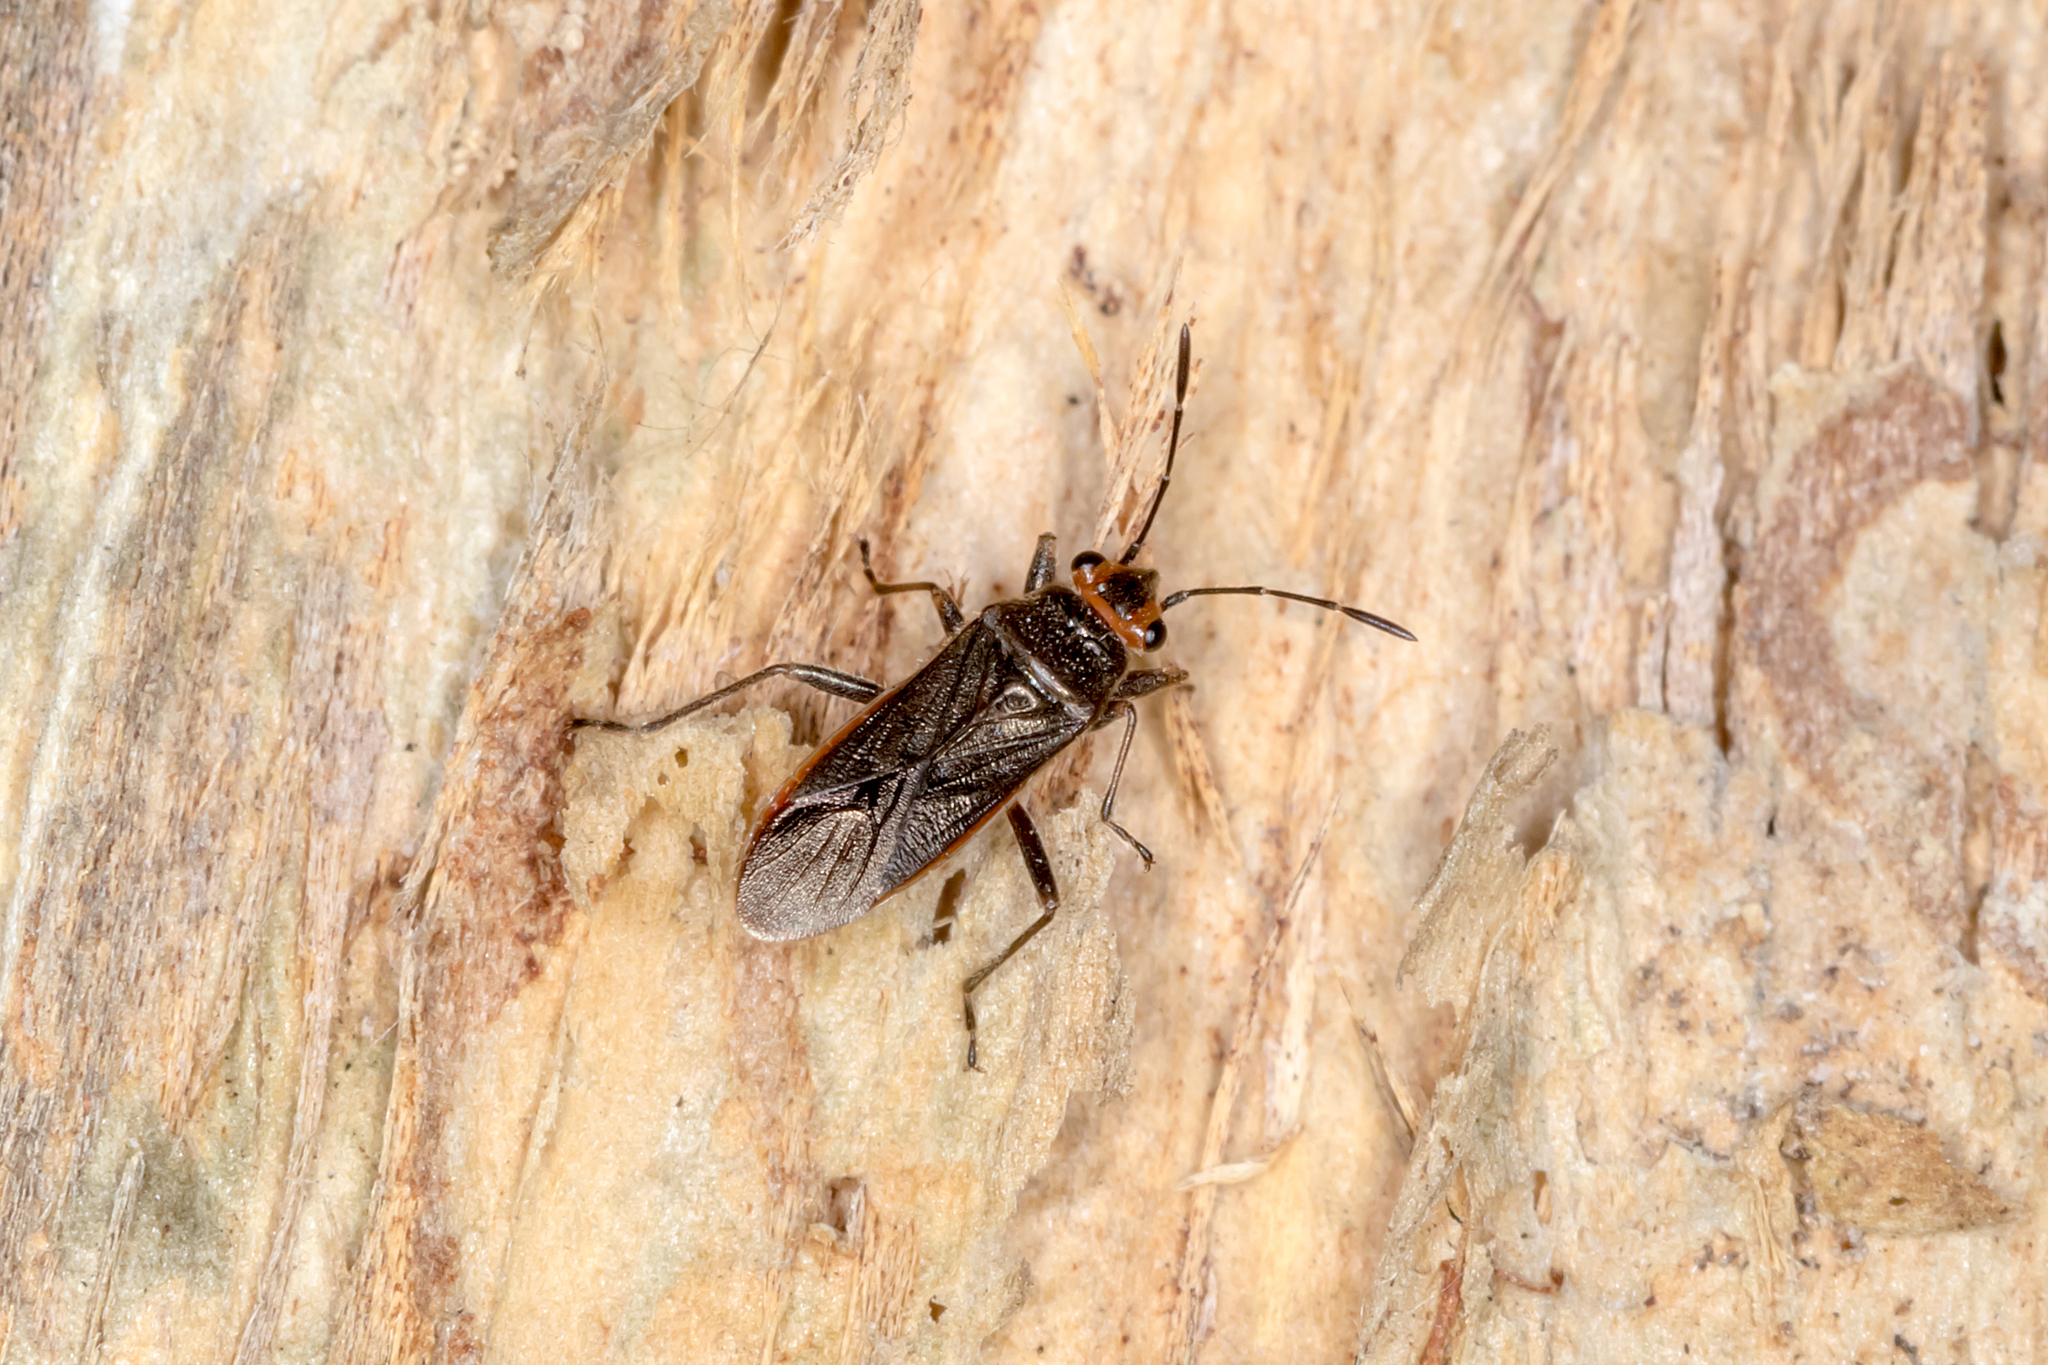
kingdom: Animalia
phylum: Arthropoda
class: Insecta
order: Hemiptera
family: Lygaeidae
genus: Arocatus
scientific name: Arocatus aenescens
